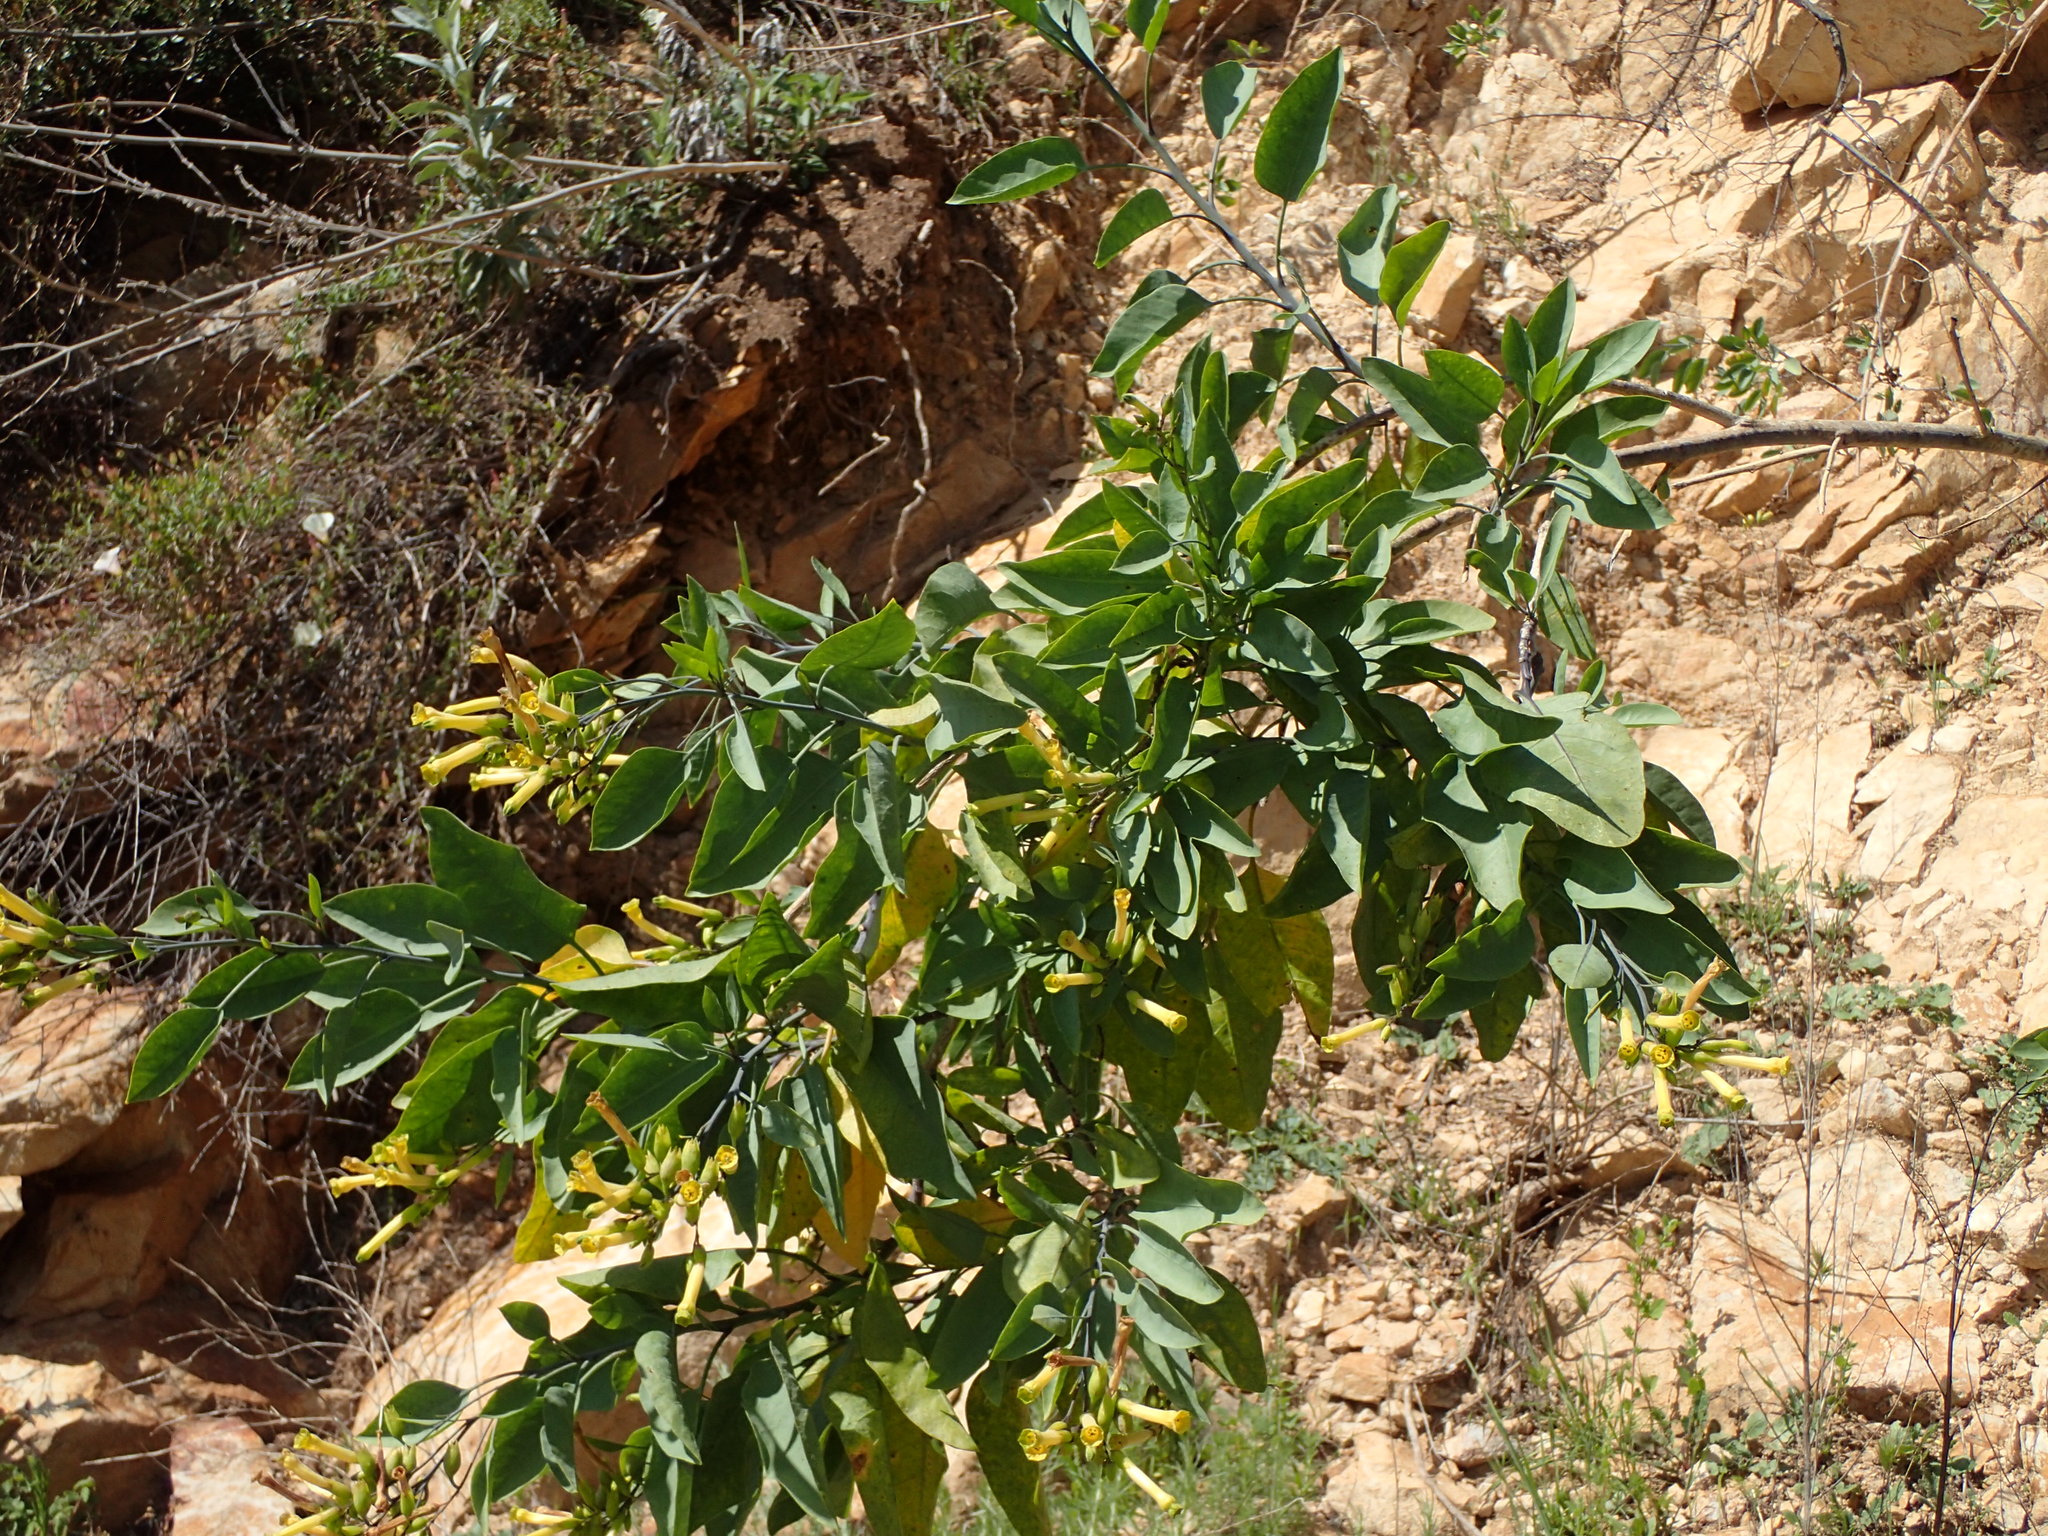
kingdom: Plantae
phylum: Tracheophyta
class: Magnoliopsida
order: Solanales
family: Solanaceae
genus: Nicotiana
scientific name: Nicotiana glauca
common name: Tree tobacco
